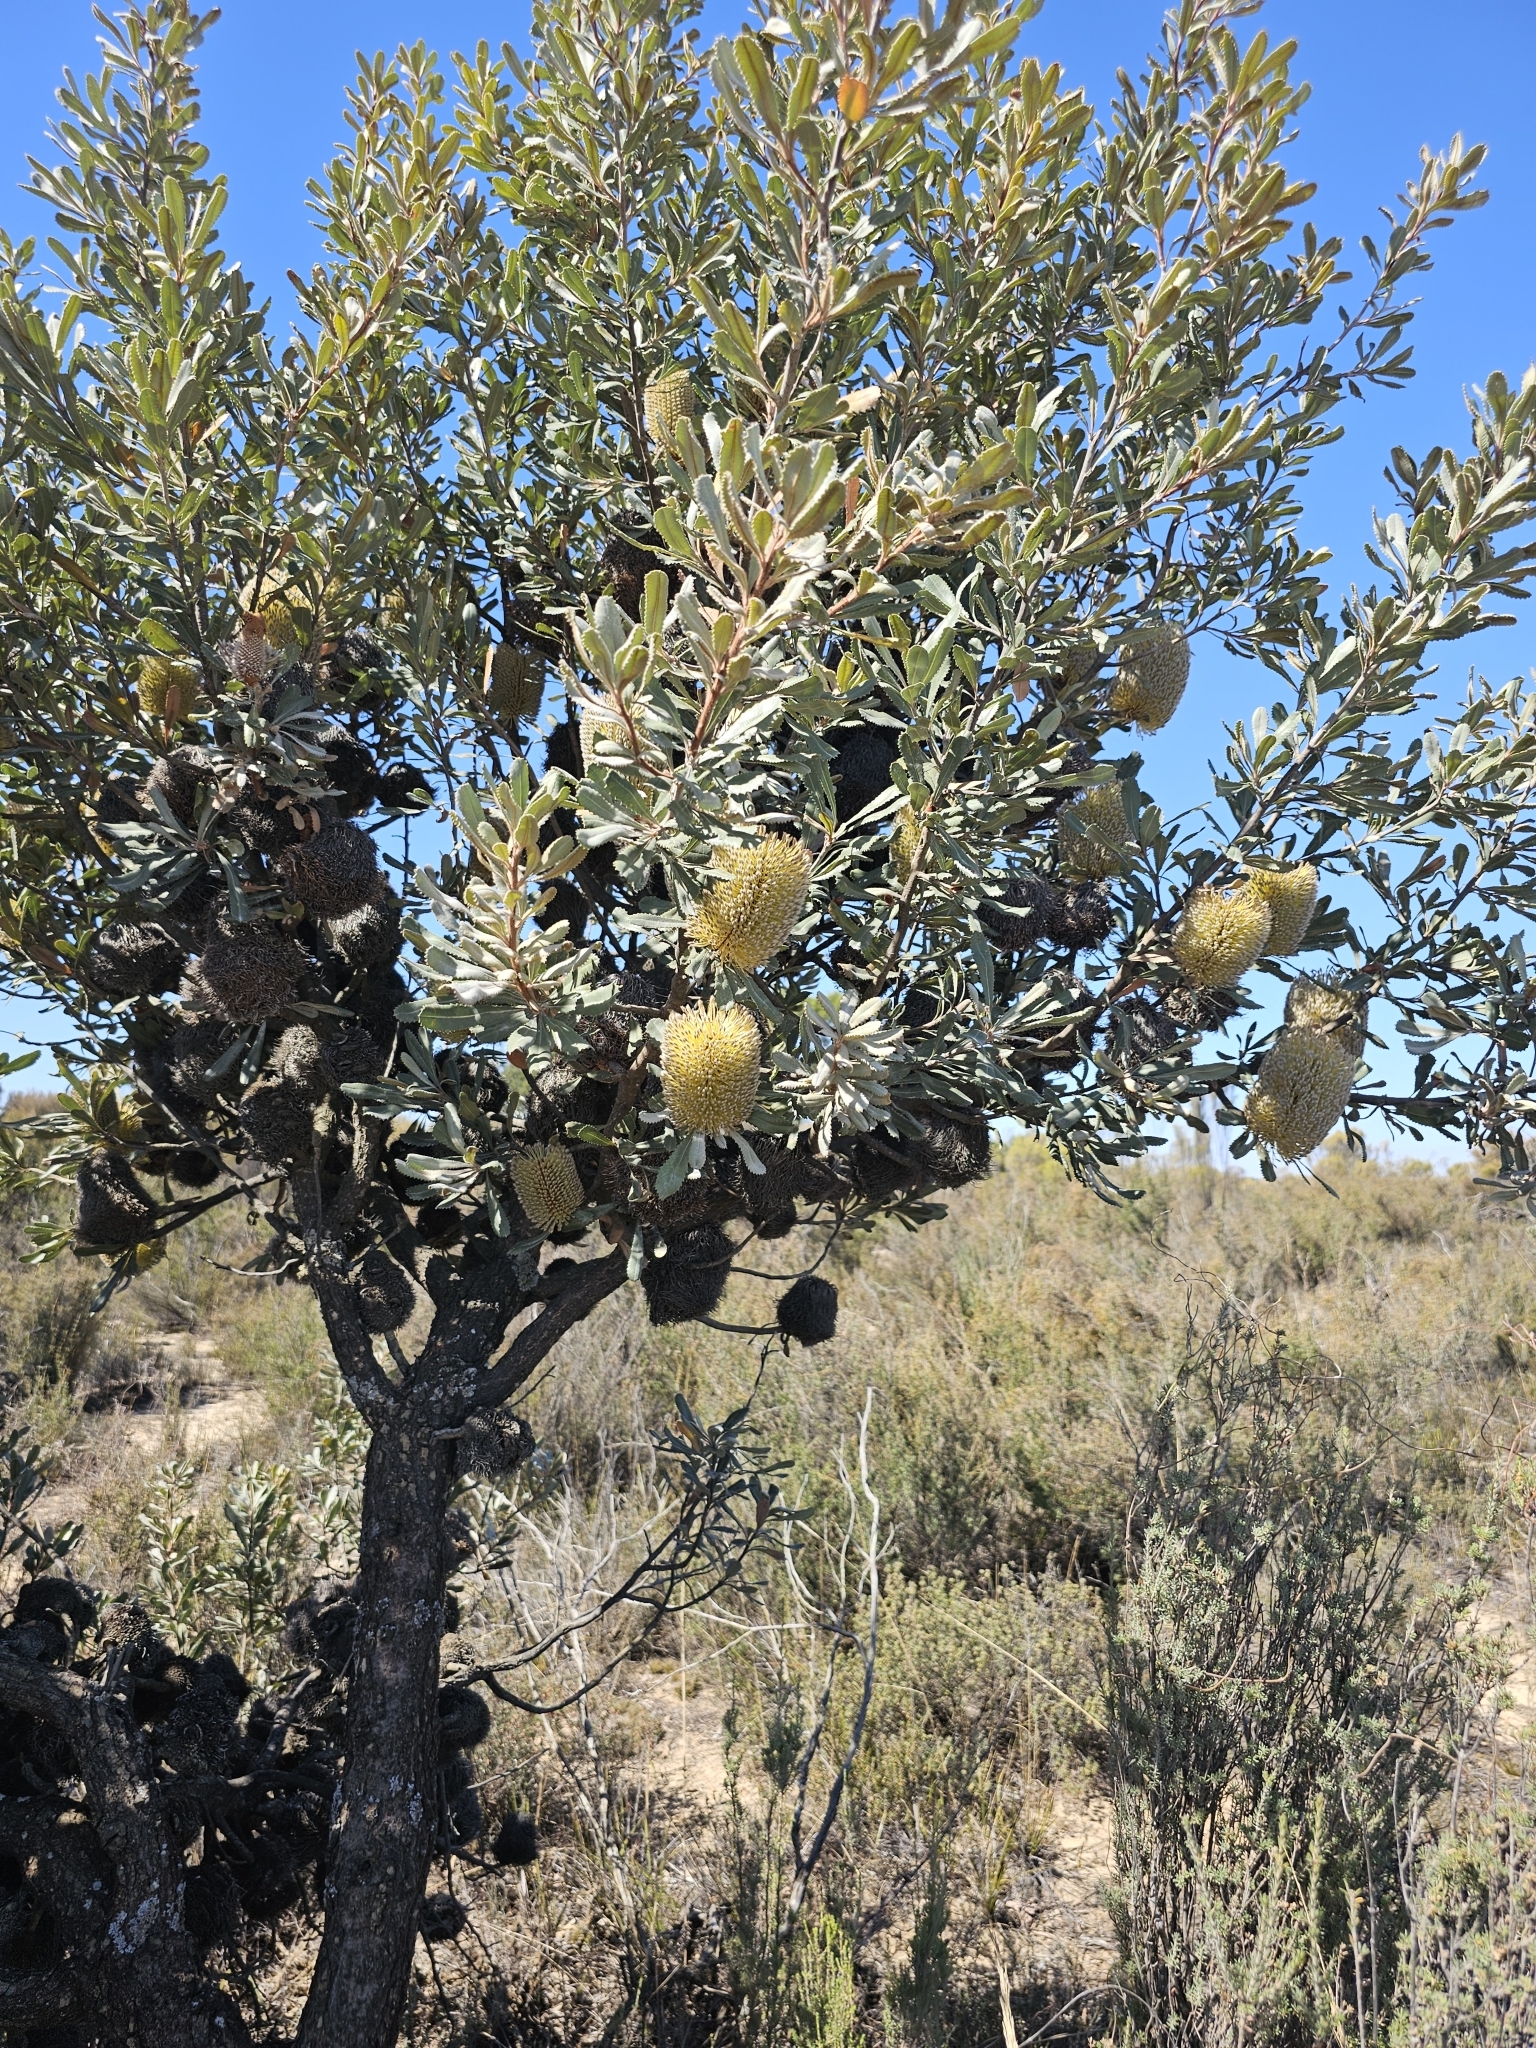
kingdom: Plantae
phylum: Tracheophyta
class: Magnoliopsida
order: Proteales
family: Proteaceae
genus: Banksia
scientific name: Banksia ornata
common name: Desert banksia
